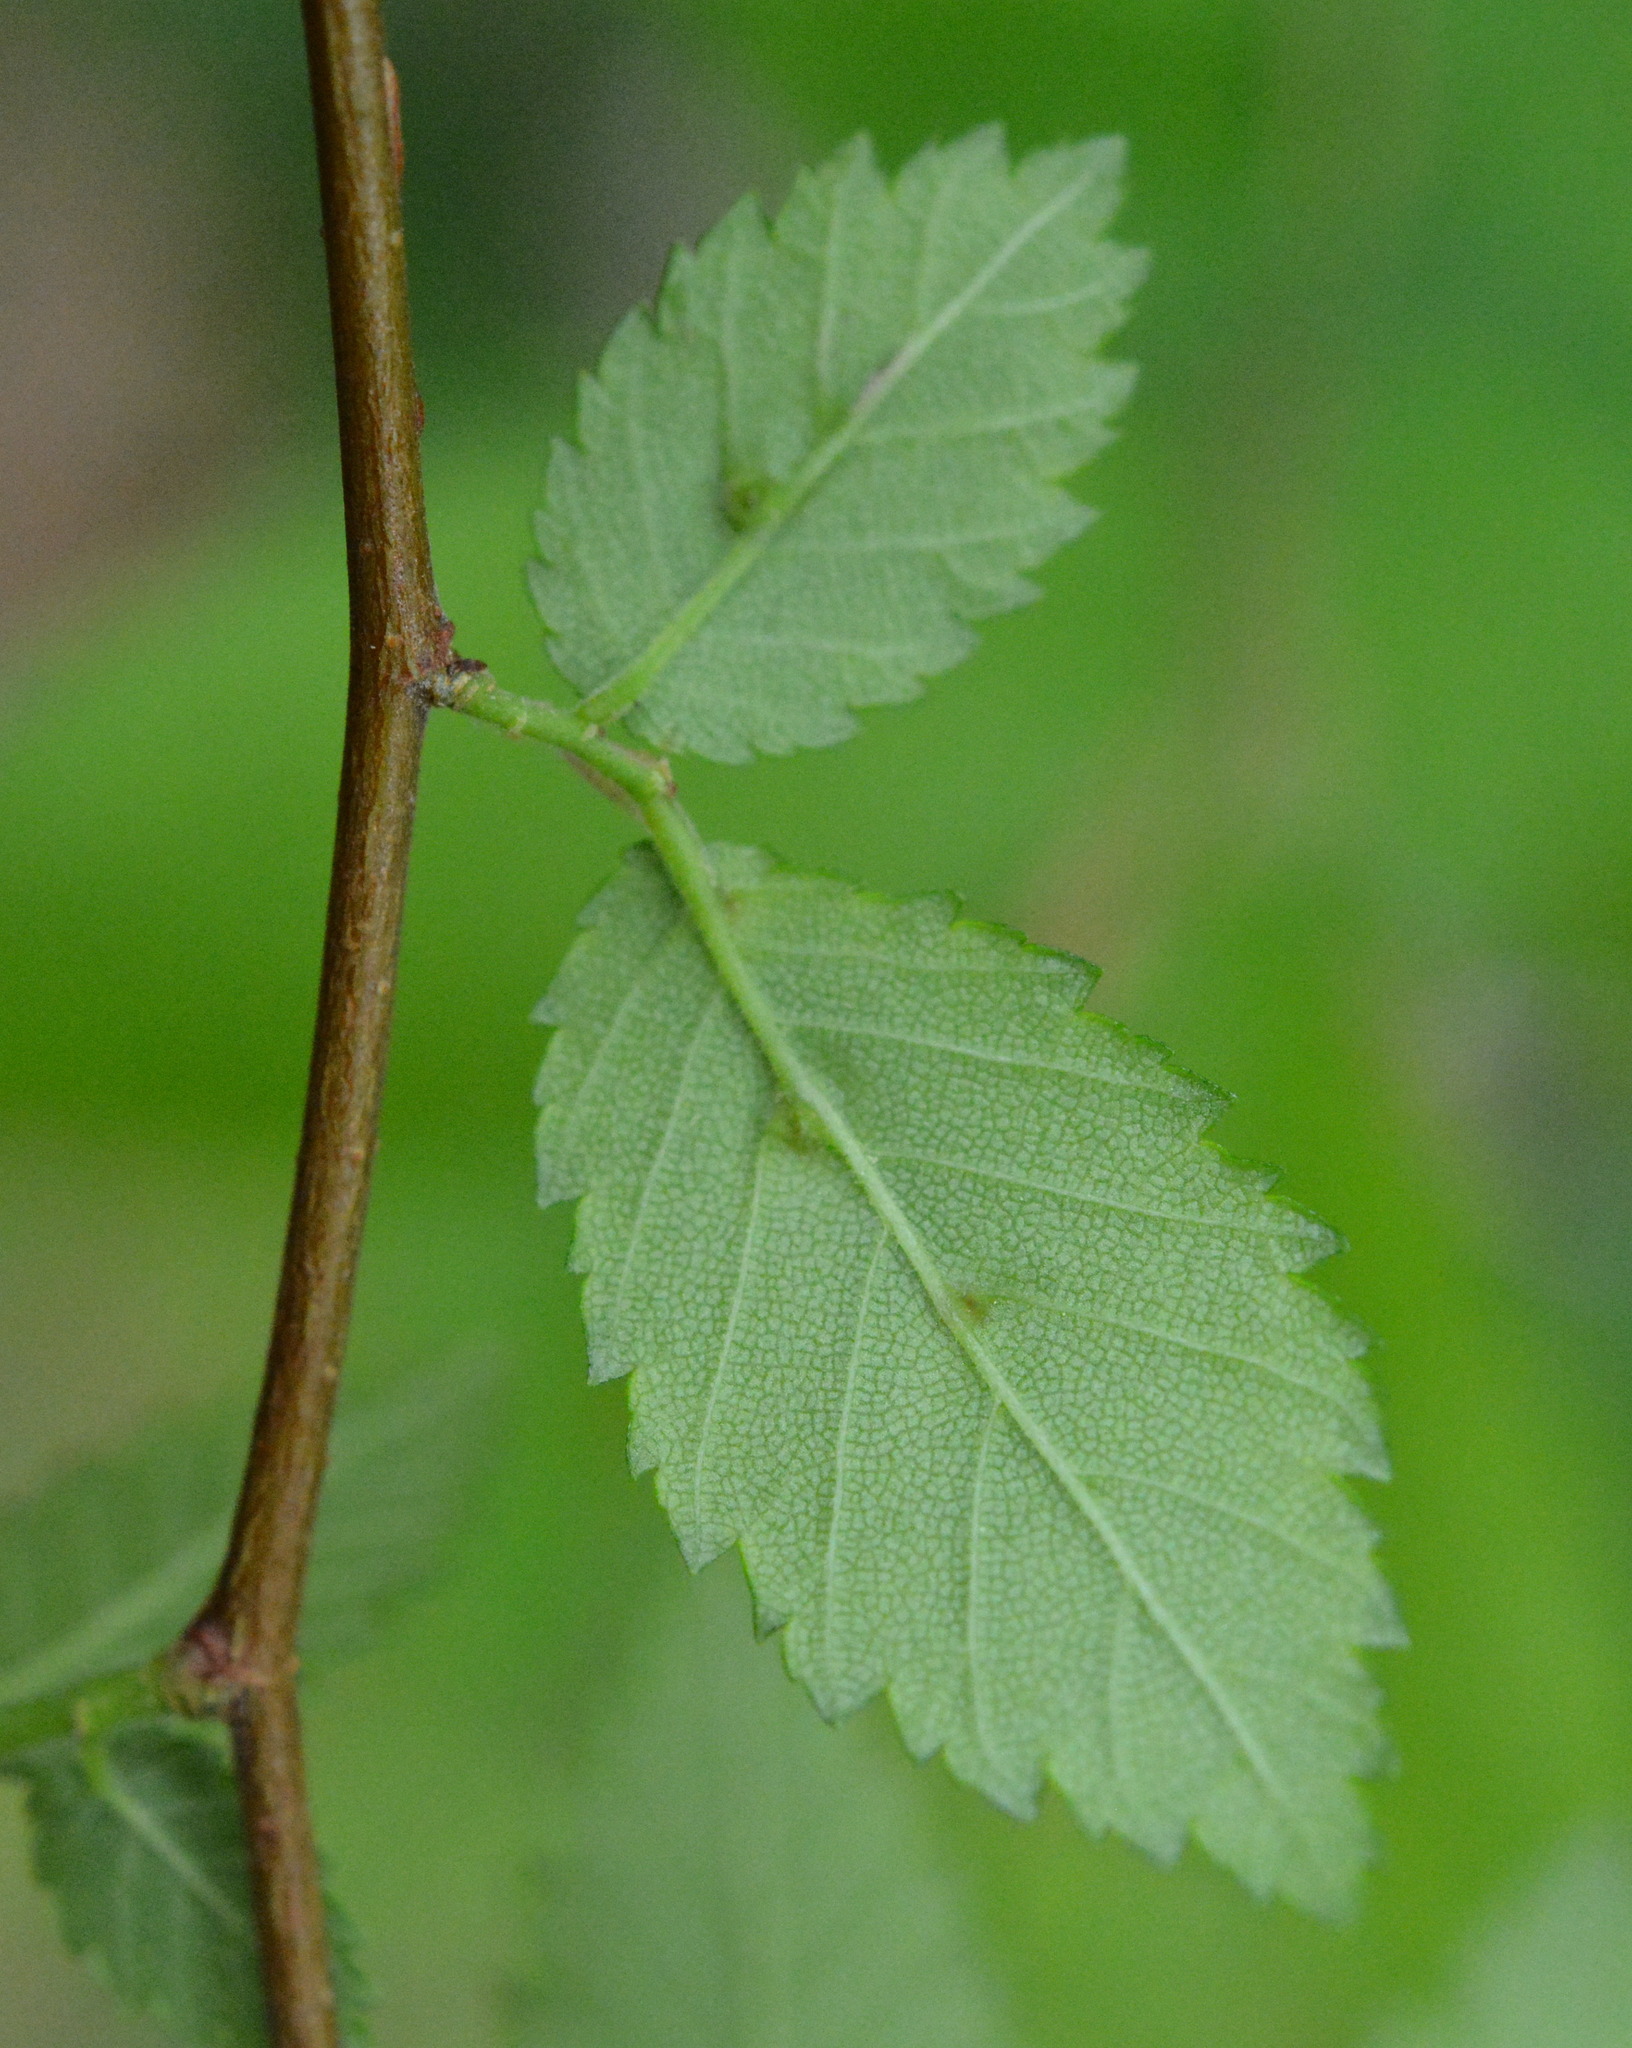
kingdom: Animalia
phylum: Arthropoda
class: Arachnida
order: Trombidiformes
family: Eriophyidae
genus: Aceria
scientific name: Aceria
